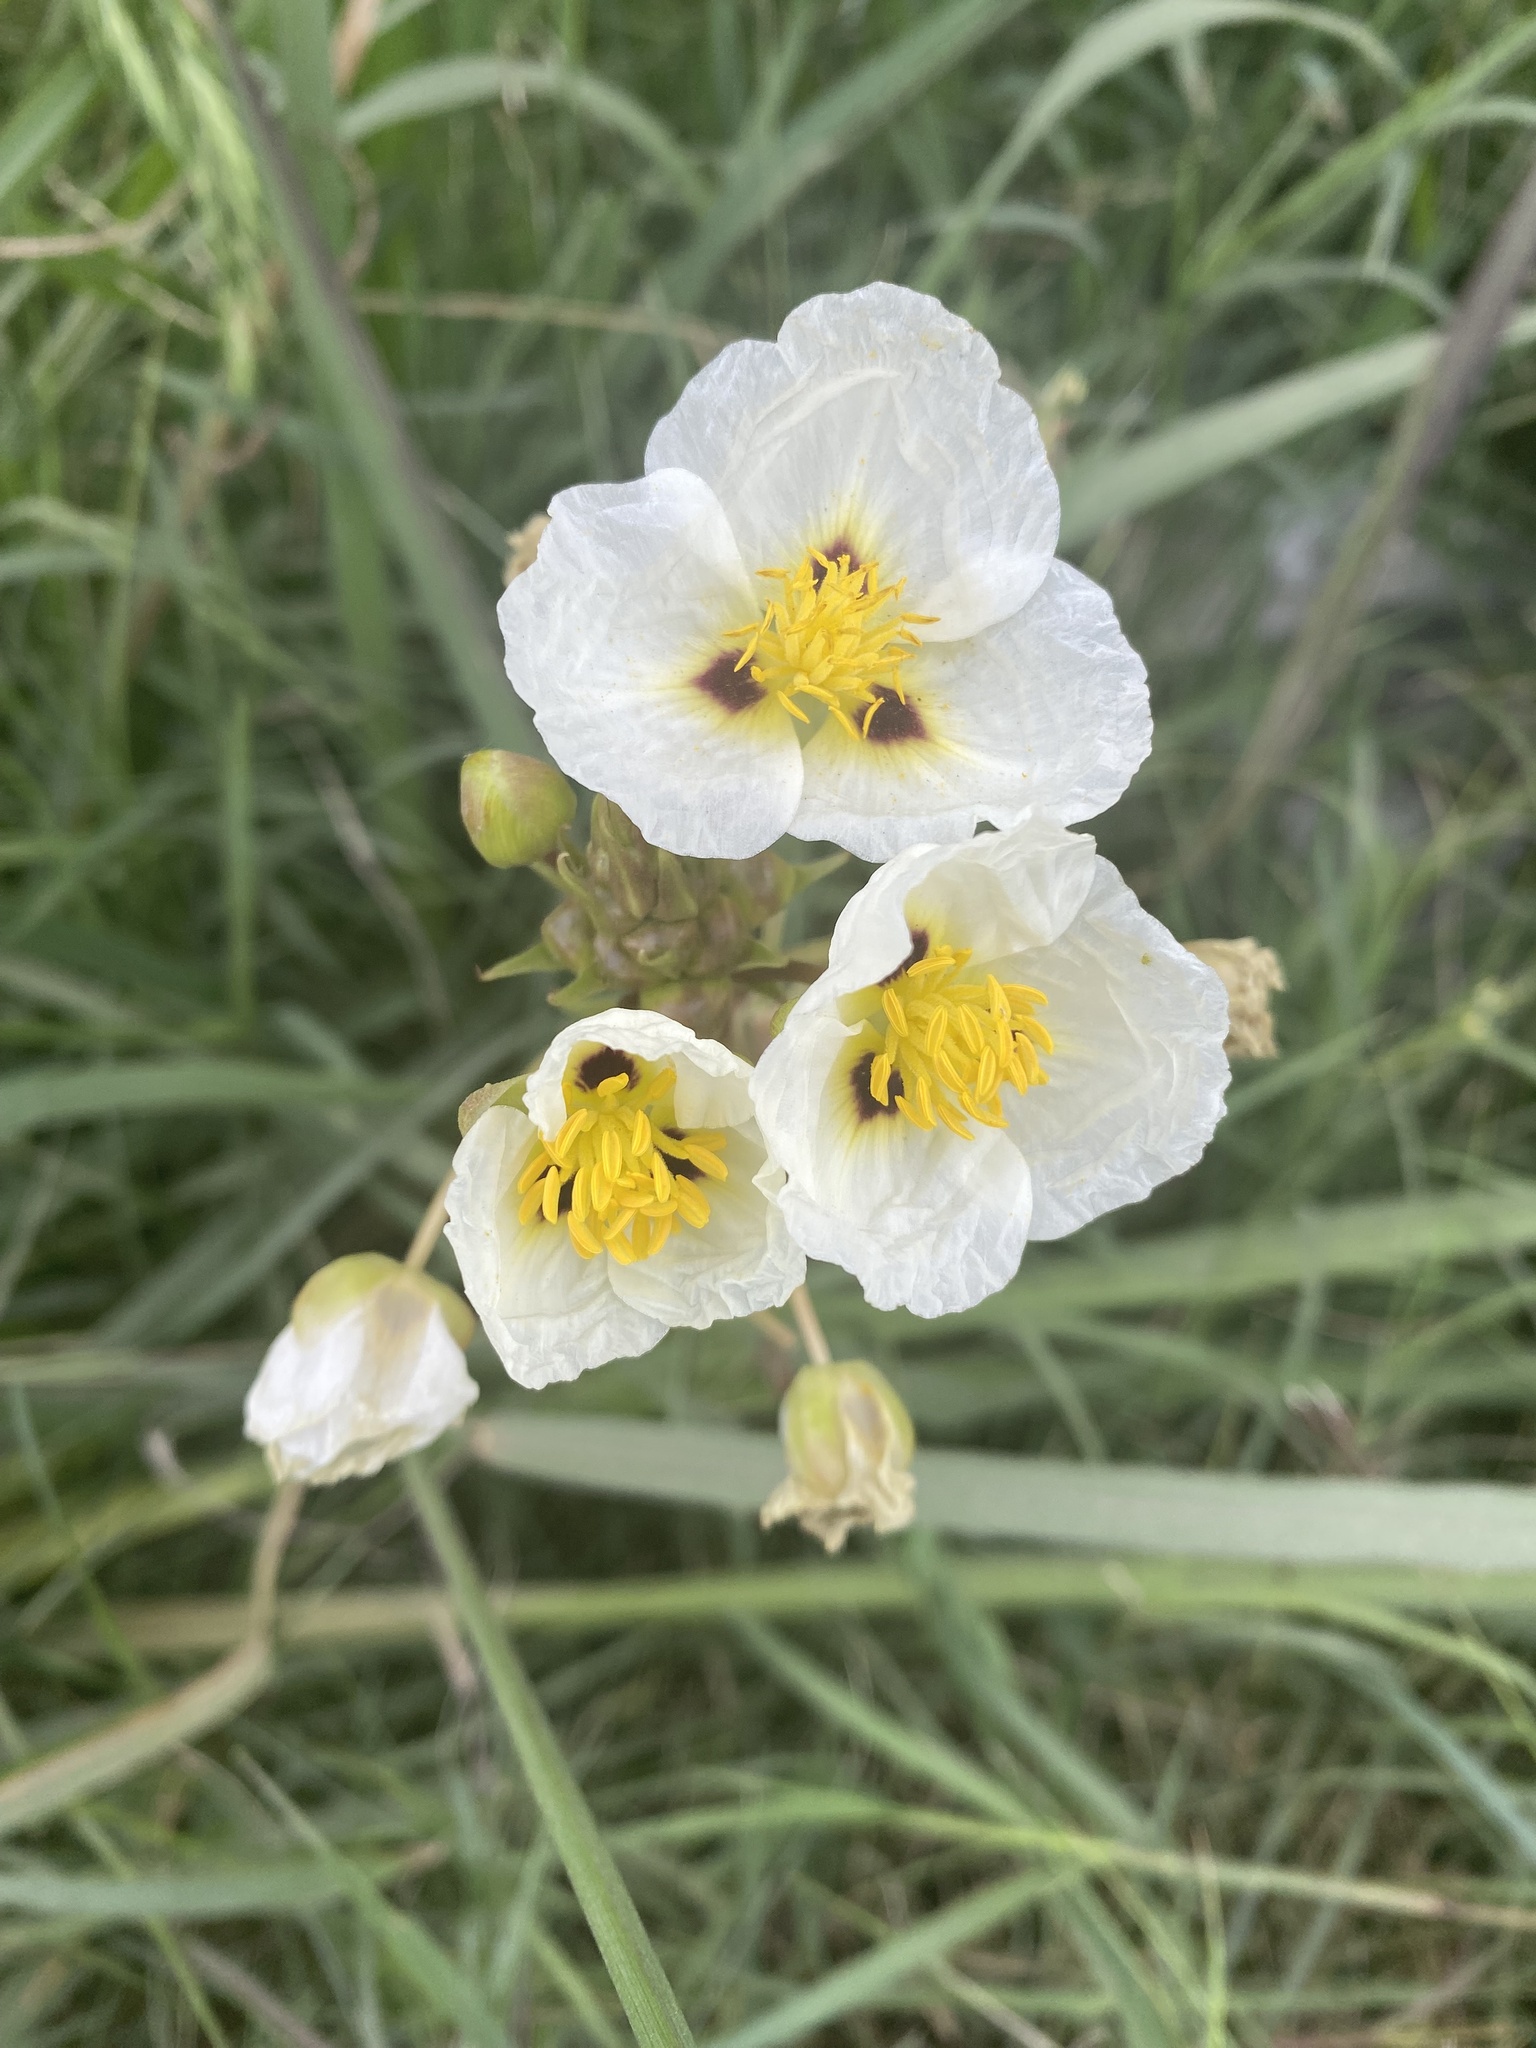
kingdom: Plantae
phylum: Tracheophyta
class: Liliopsida
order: Alismatales
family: Alismataceae
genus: Sagittaria
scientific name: Sagittaria montevidensis
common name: Giant arrowhead
